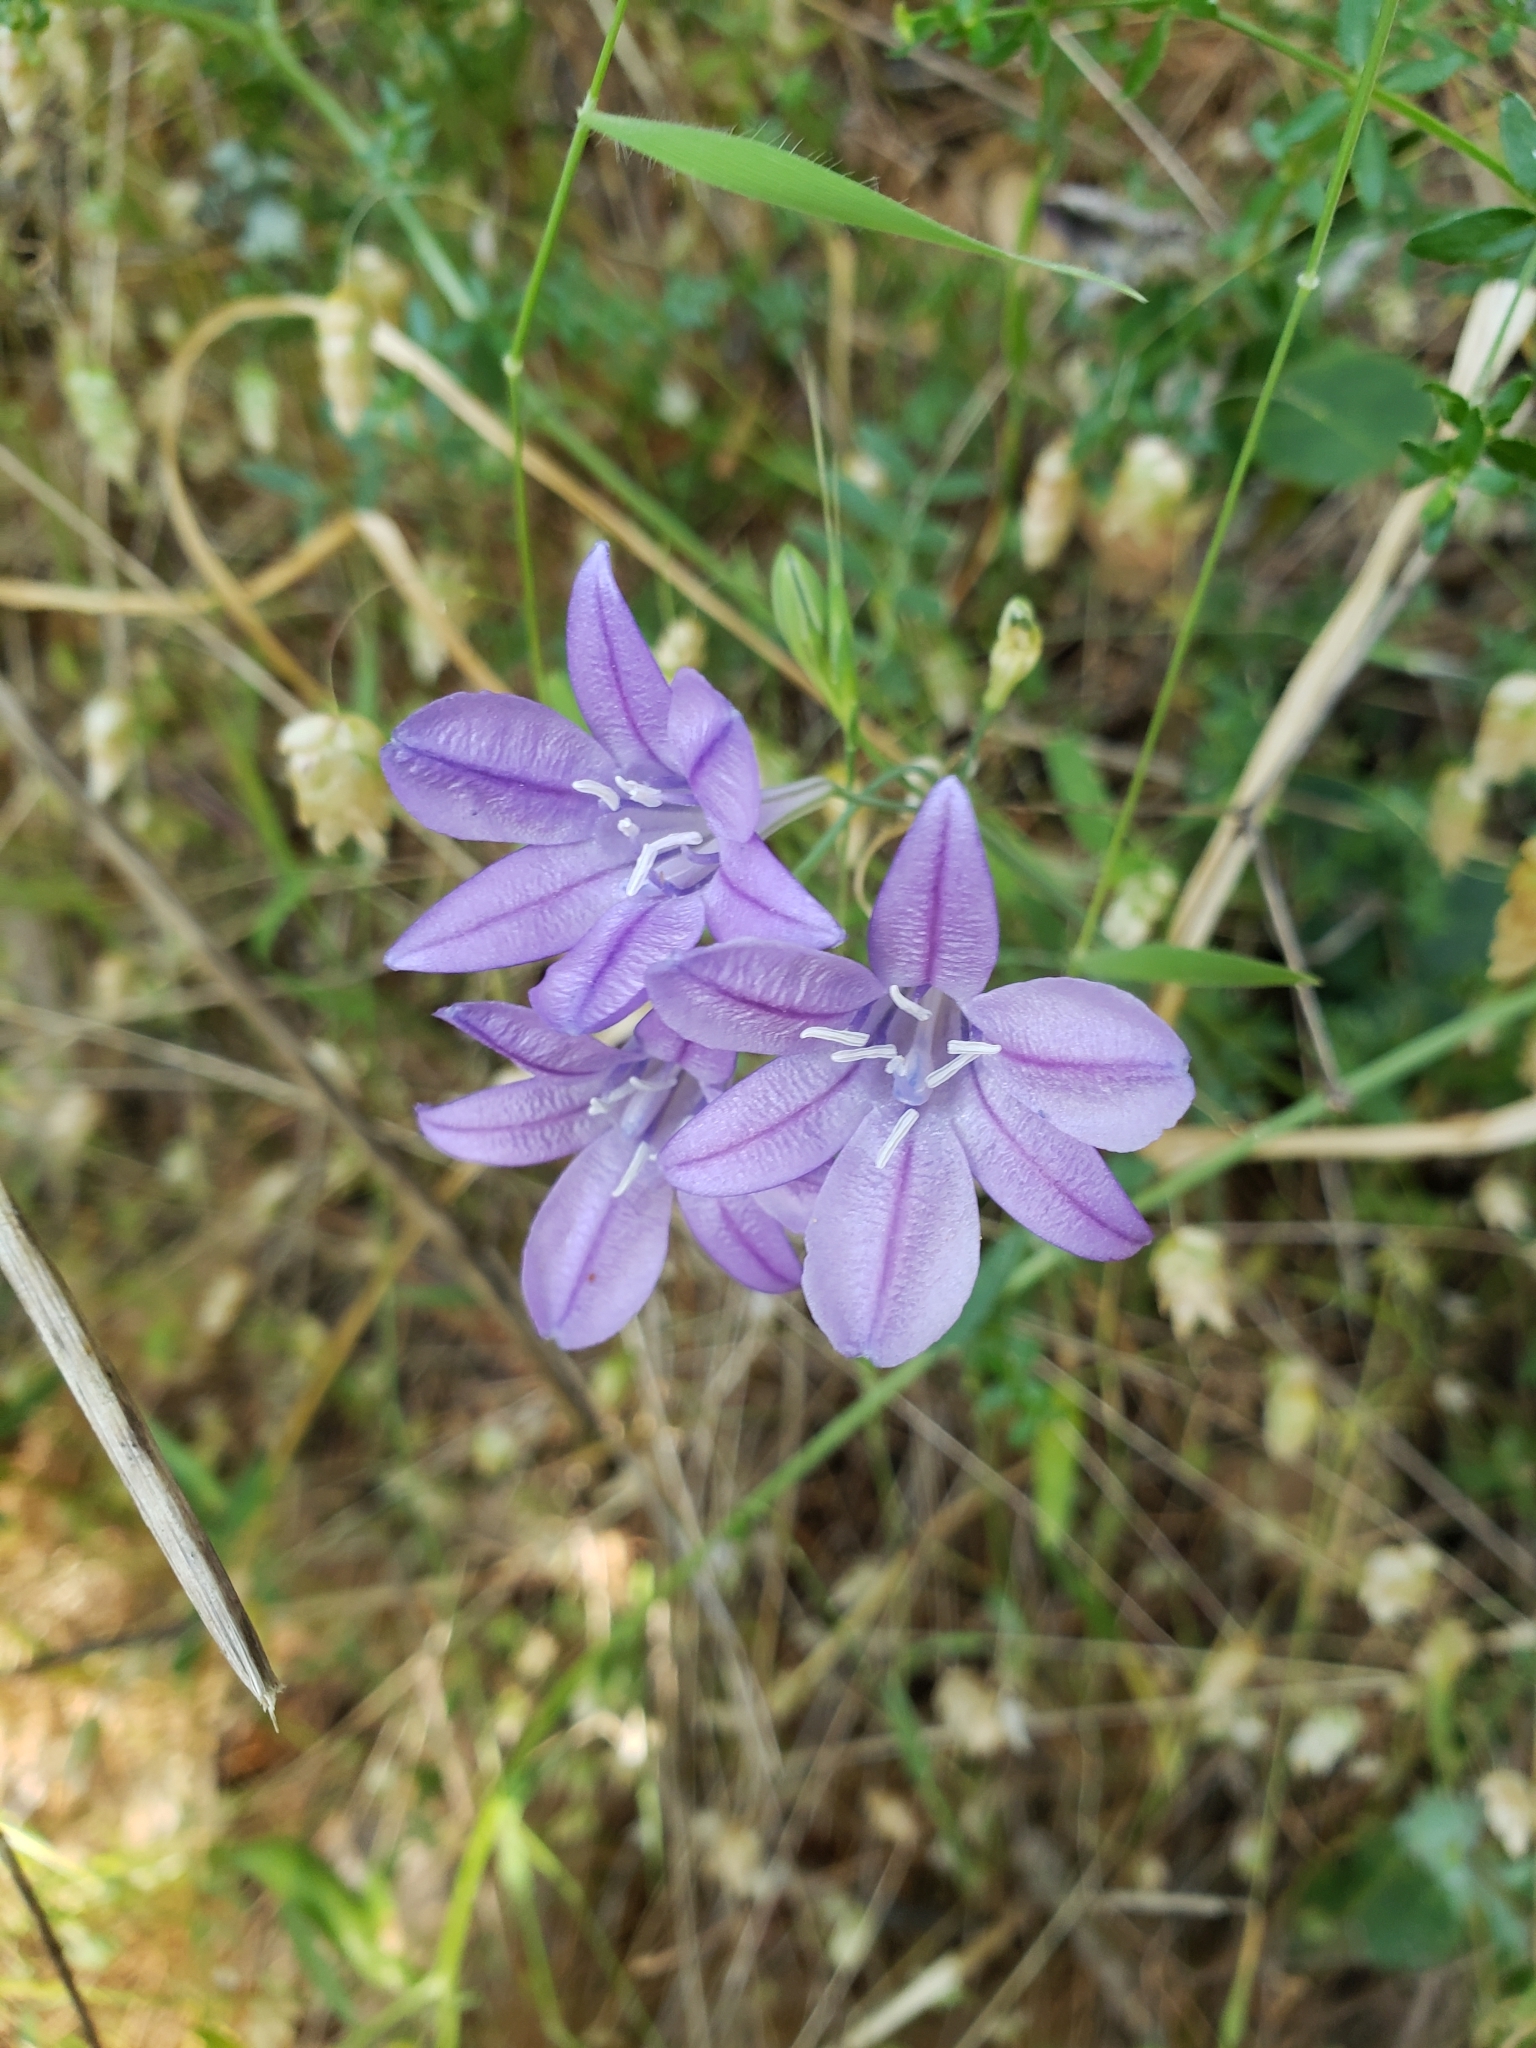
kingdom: Plantae
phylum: Tracheophyta
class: Liliopsida
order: Asparagales
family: Asparagaceae
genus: Triteleia
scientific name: Triteleia laxa
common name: Triplet-lily
